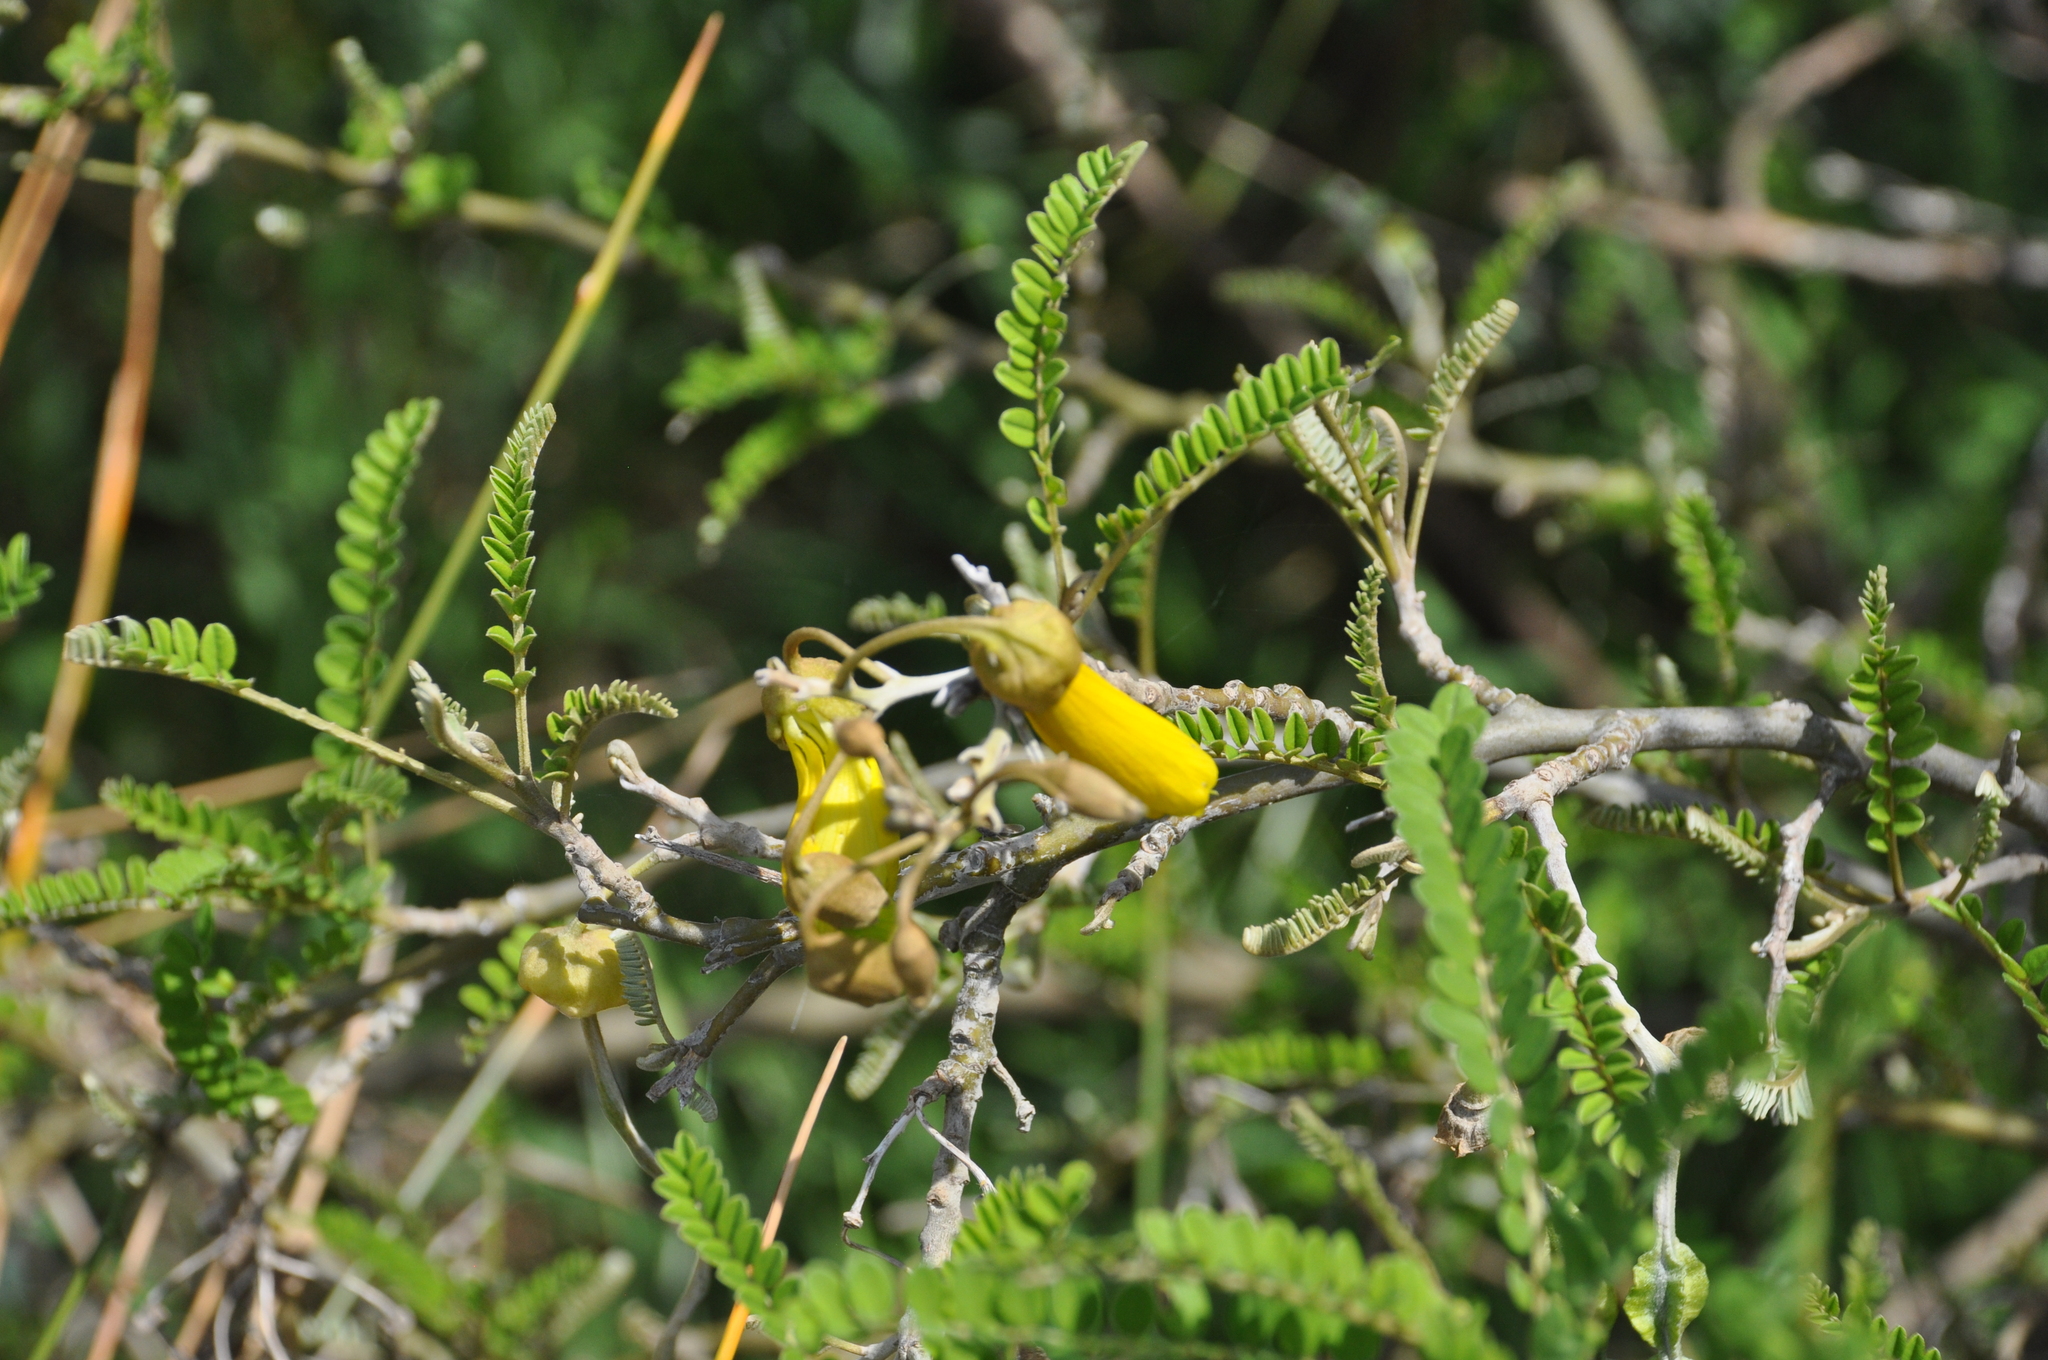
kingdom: Plantae
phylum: Tracheophyta
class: Magnoliopsida
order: Fabales
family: Fabaceae
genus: Sophora
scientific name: Sophora microphylla
